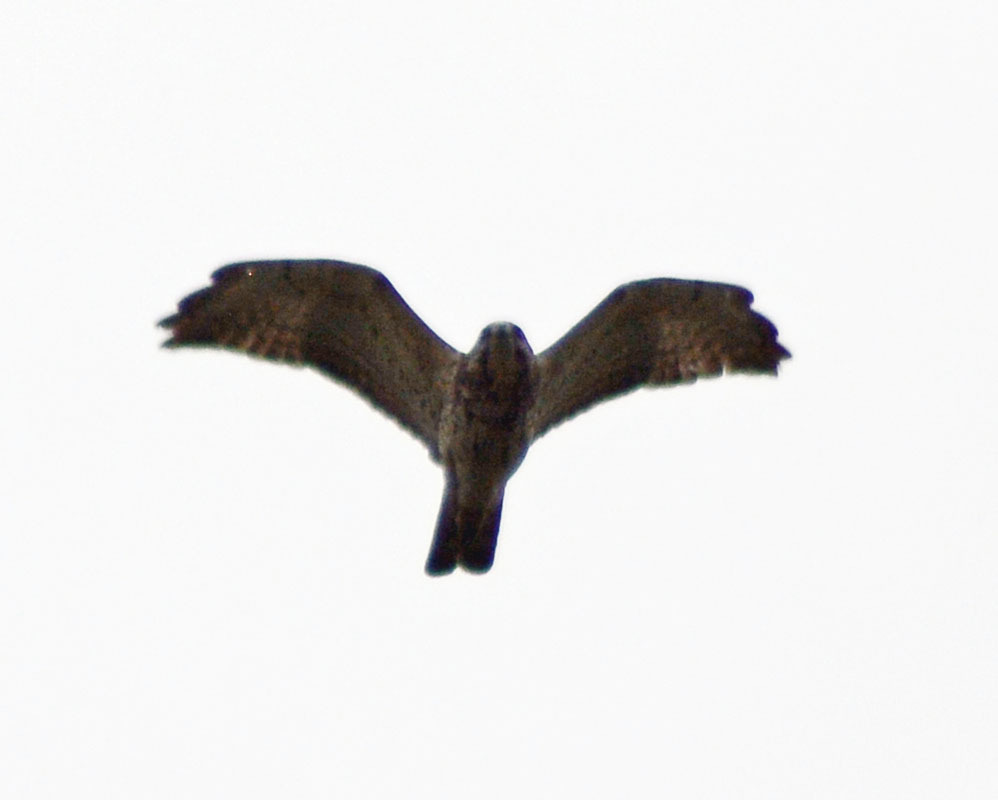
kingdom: Animalia
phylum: Chordata
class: Aves
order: Accipitriformes
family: Accipitridae
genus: Buteo
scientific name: Buteo platypterus
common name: Broad-winged hawk
